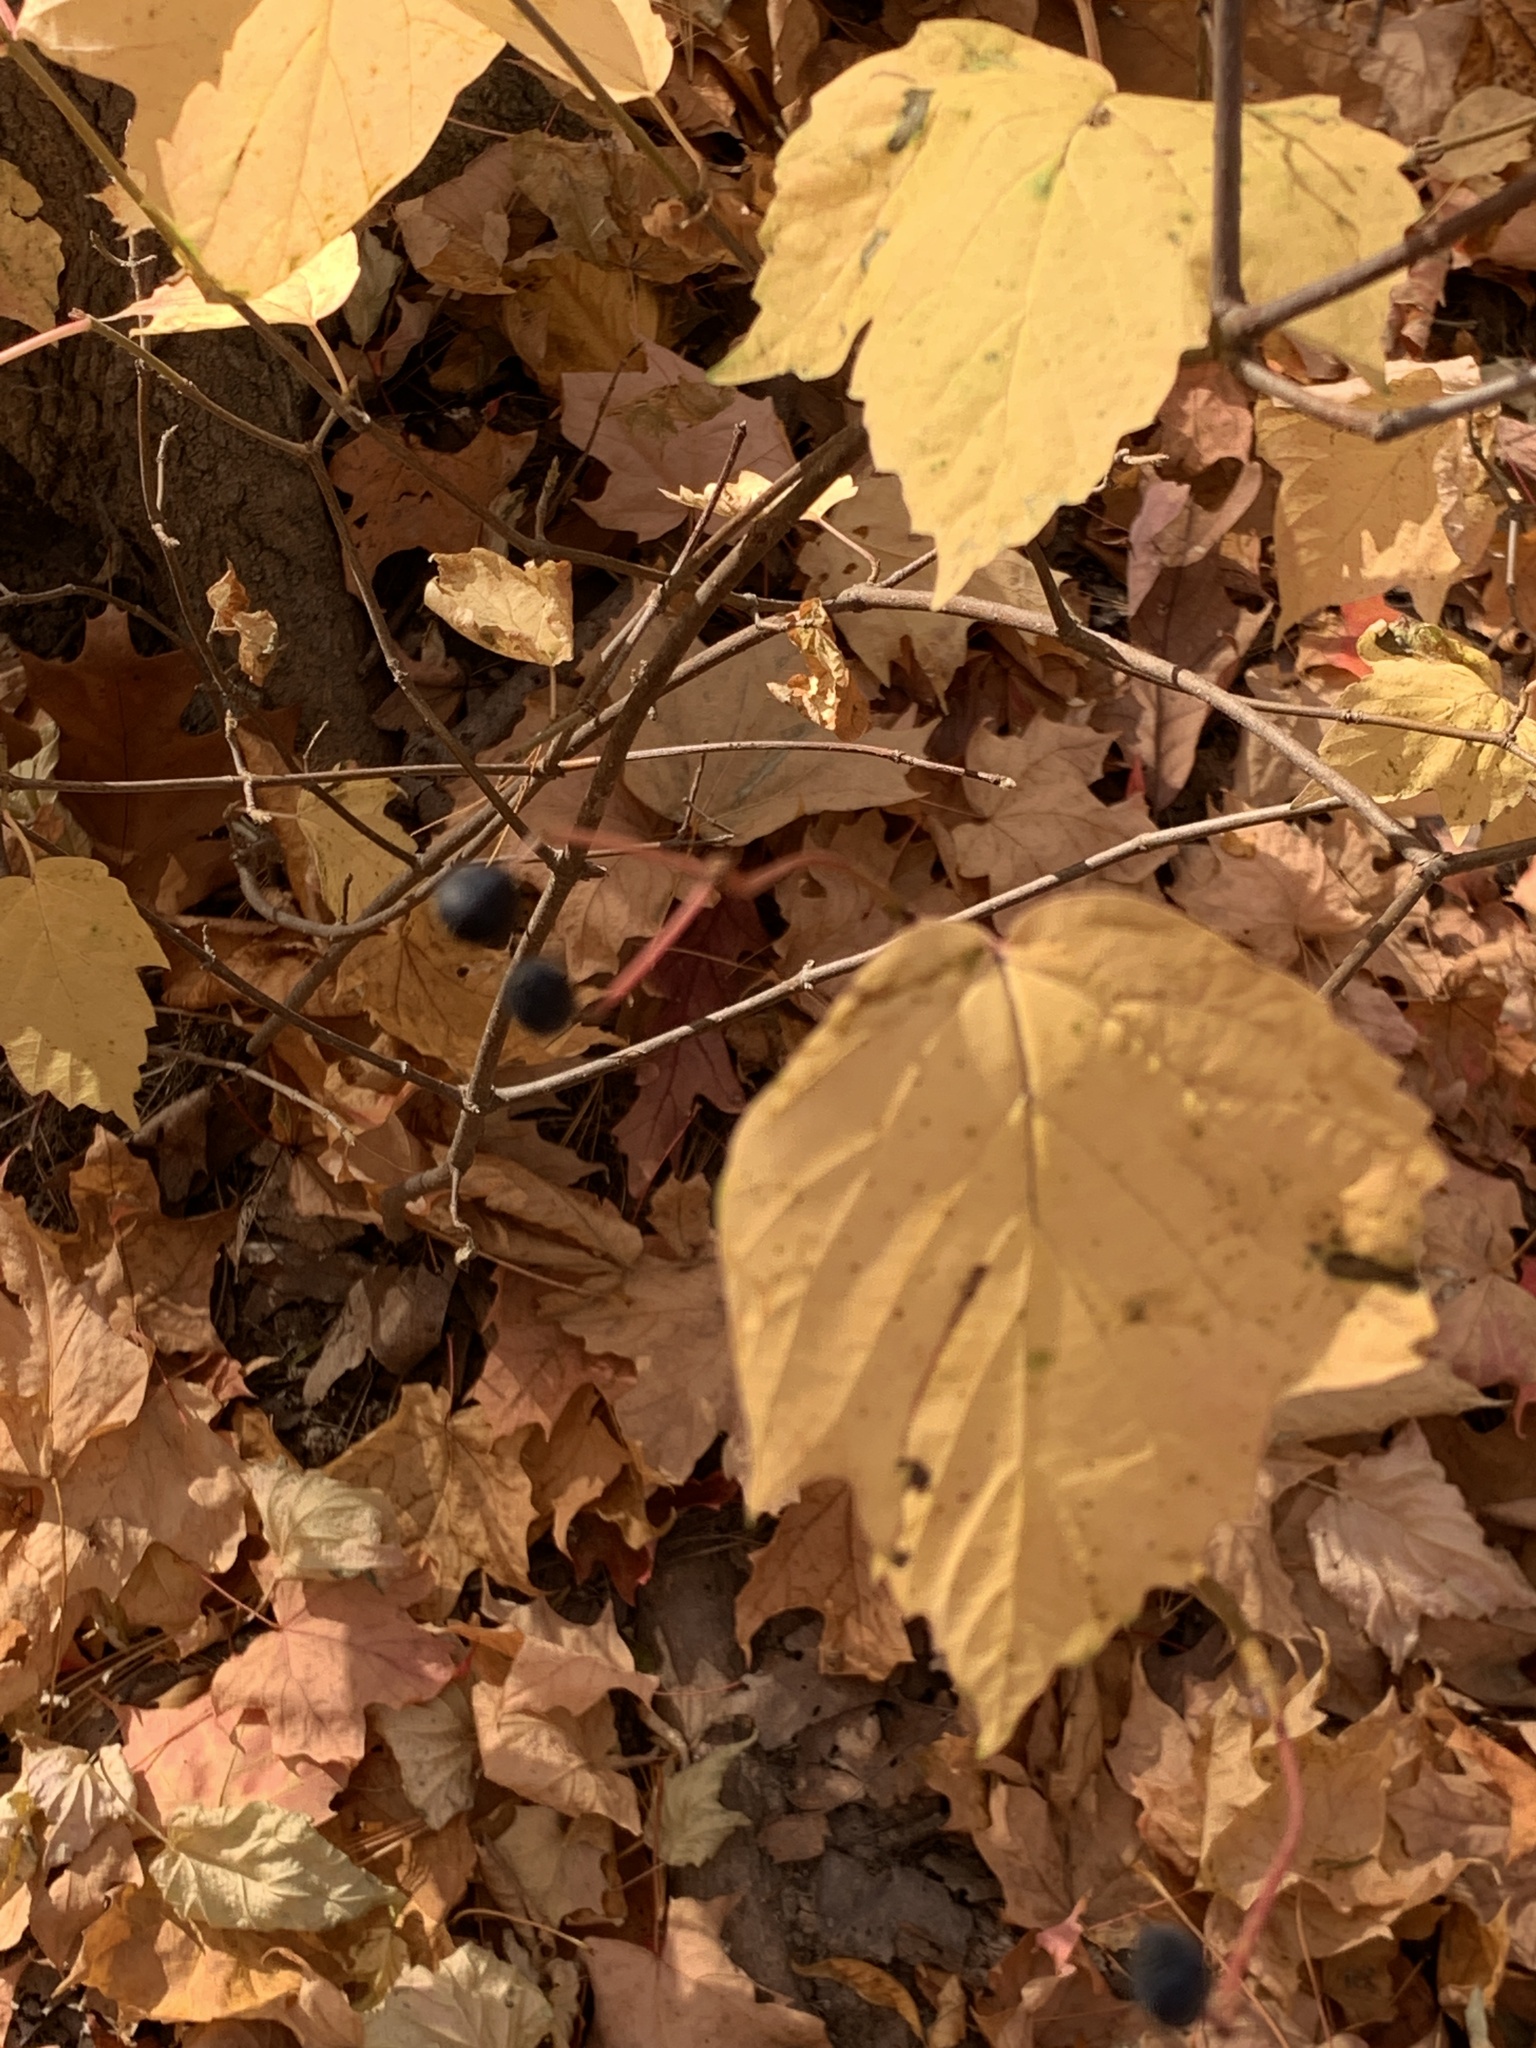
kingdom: Plantae
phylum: Tracheophyta
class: Magnoliopsida
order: Dipsacales
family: Viburnaceae
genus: Viburnum
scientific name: Viburnum acerifolium
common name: Dockmackie
